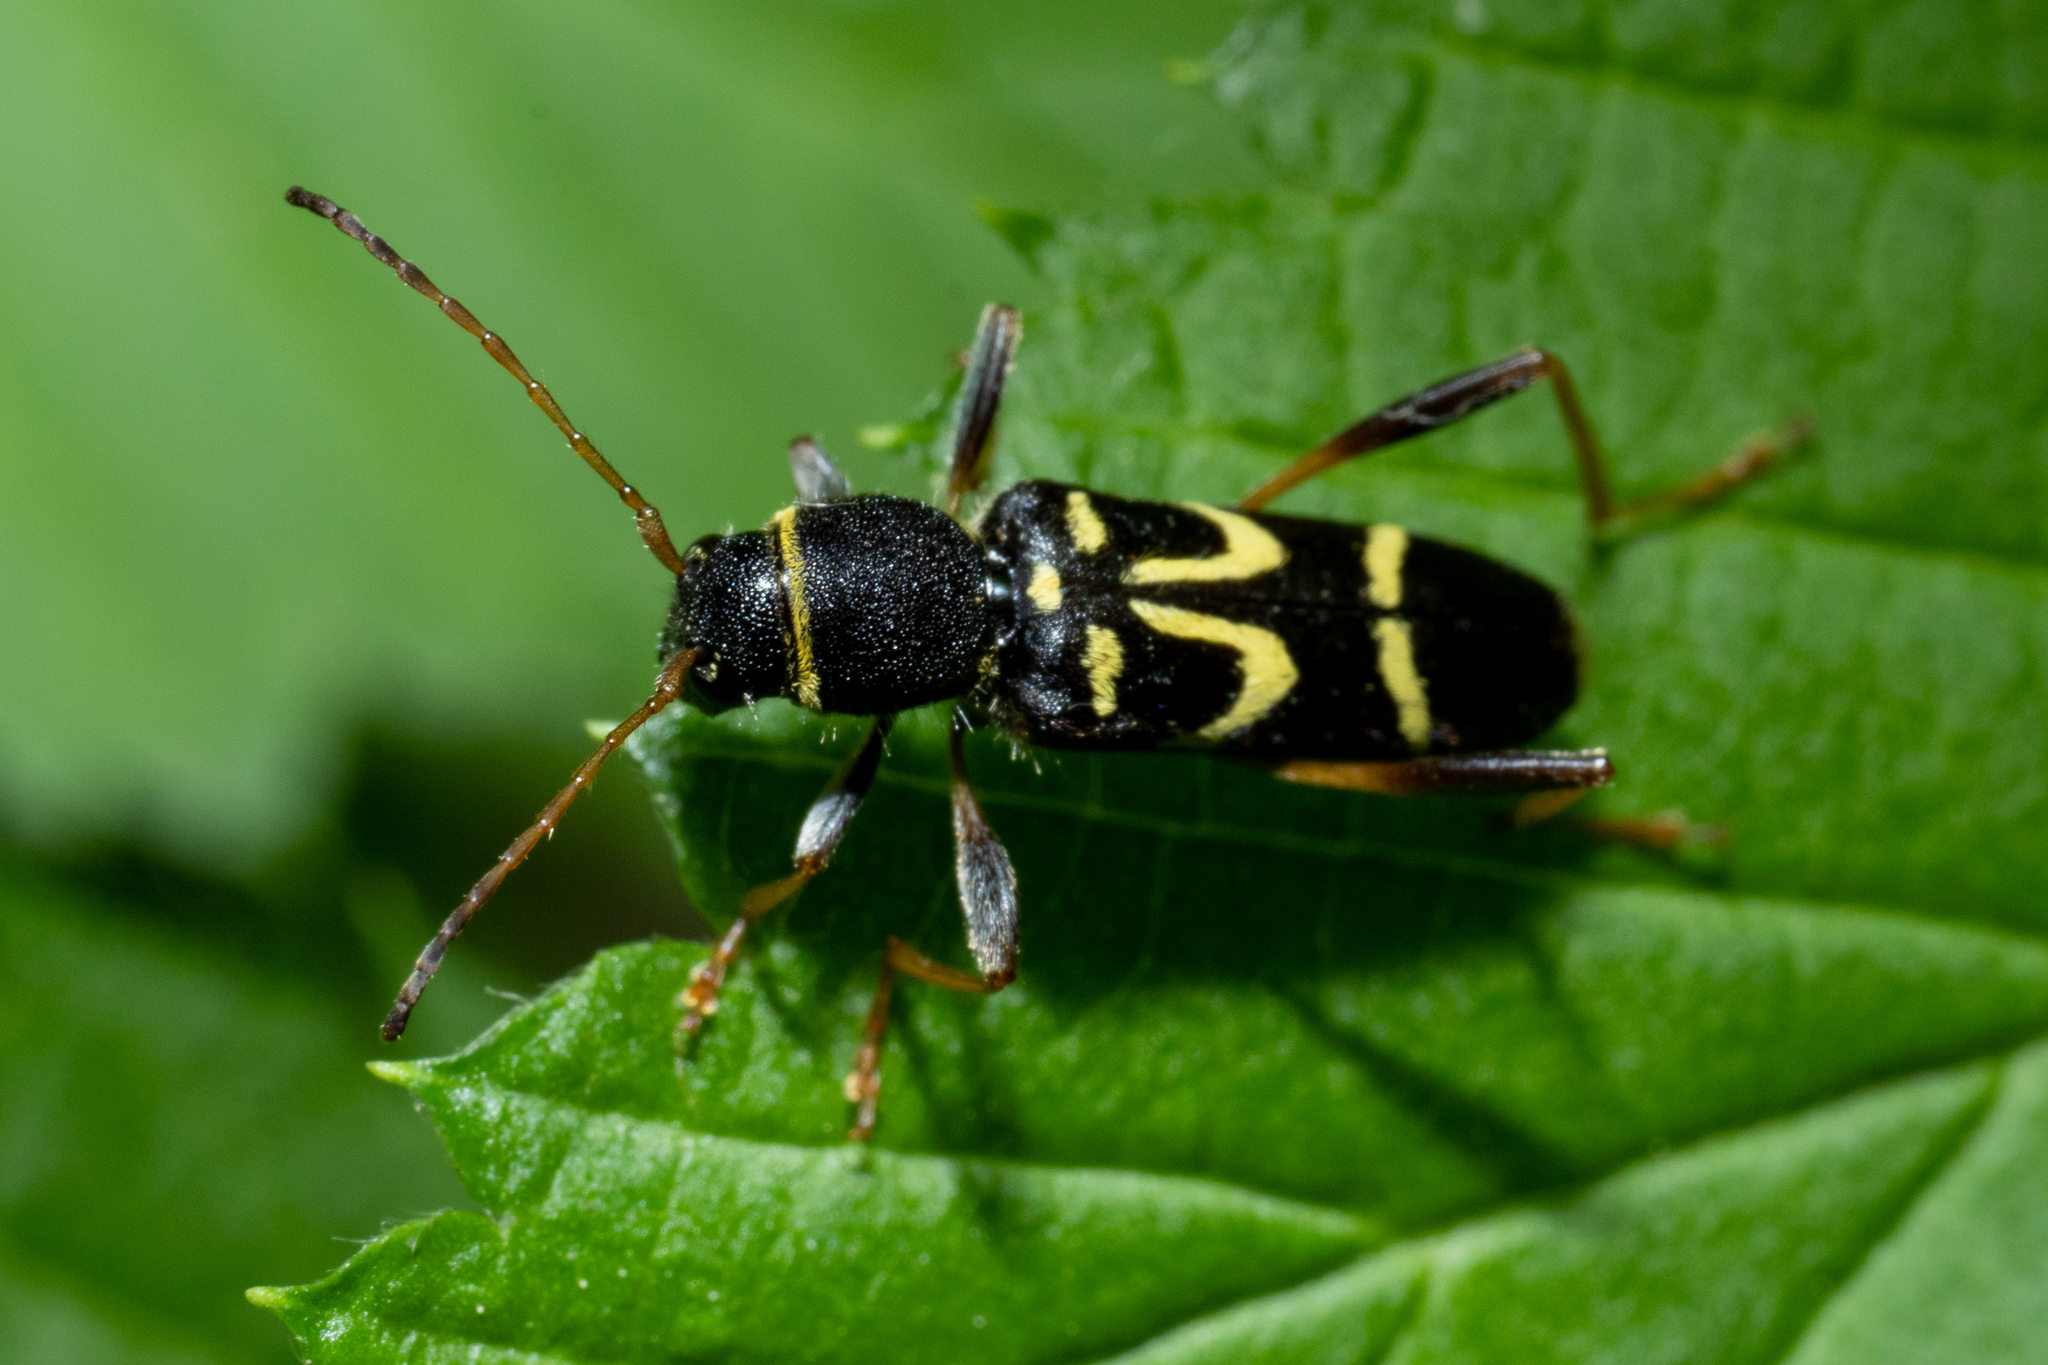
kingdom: Animalia
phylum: Arthropoda
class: Insecta
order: Coleoptera
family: Cerambycidae
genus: Clytus
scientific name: Clytus ruricola
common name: Round-necked longhorn beetle
